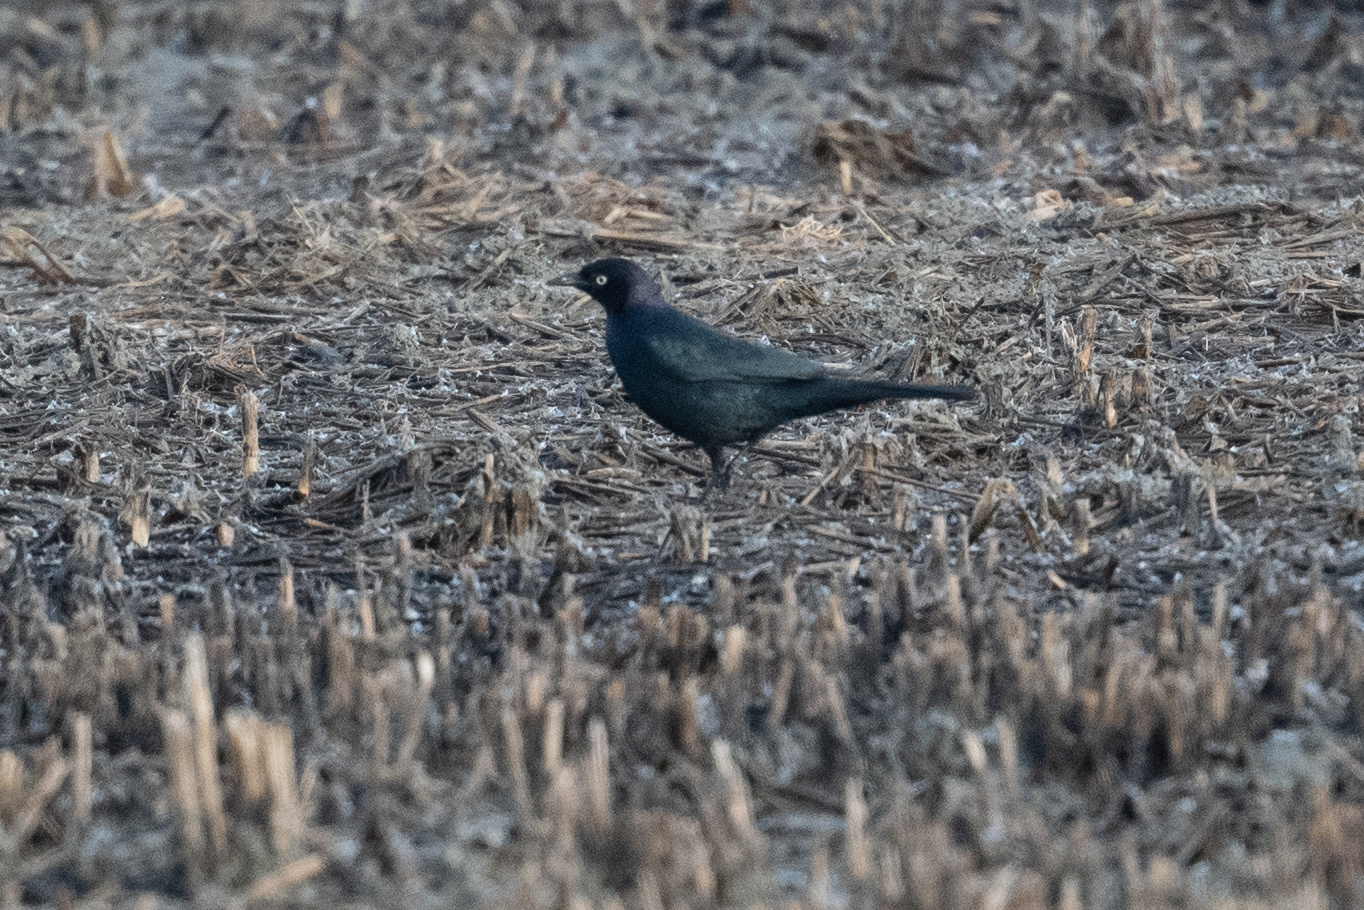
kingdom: Animalia
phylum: Chordata
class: Aves
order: Passeriformes
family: Icteridae
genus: Euphagus
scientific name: Euphagus cyanocephalus
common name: Brewer's blackbird
